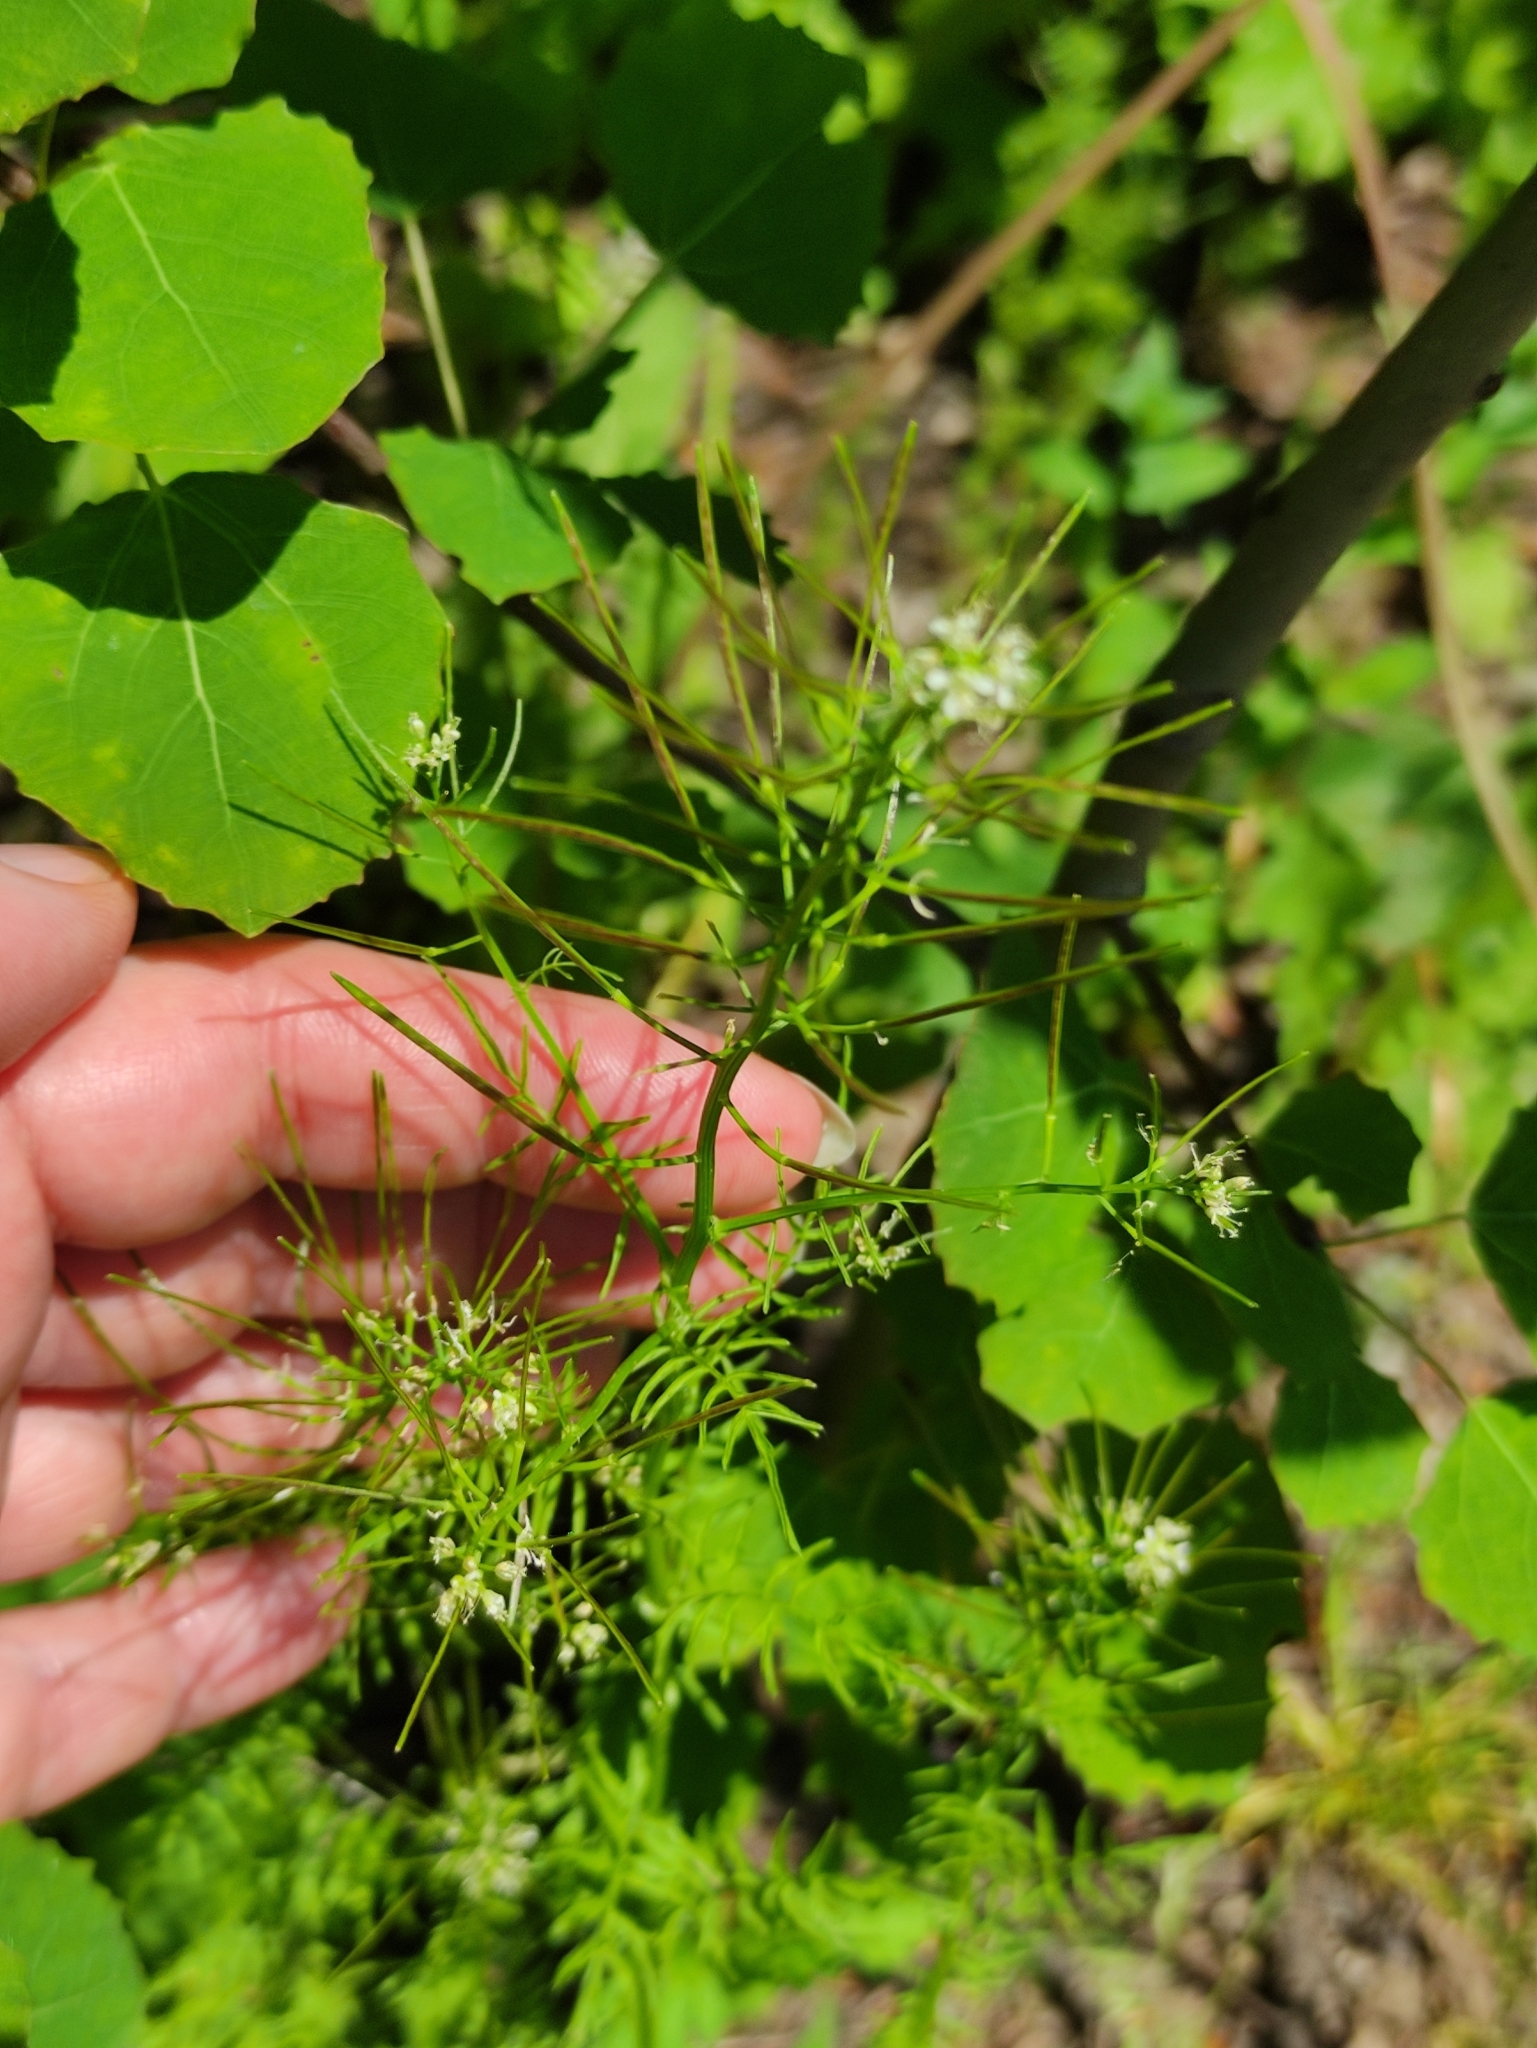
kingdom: Plantae
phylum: Tracheophyta
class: Magnoliopsida
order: Brassicales
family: Brassicaceae
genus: Cardamine
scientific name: Cardamine impatiens
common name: Narrow-leaved bitter-cress
